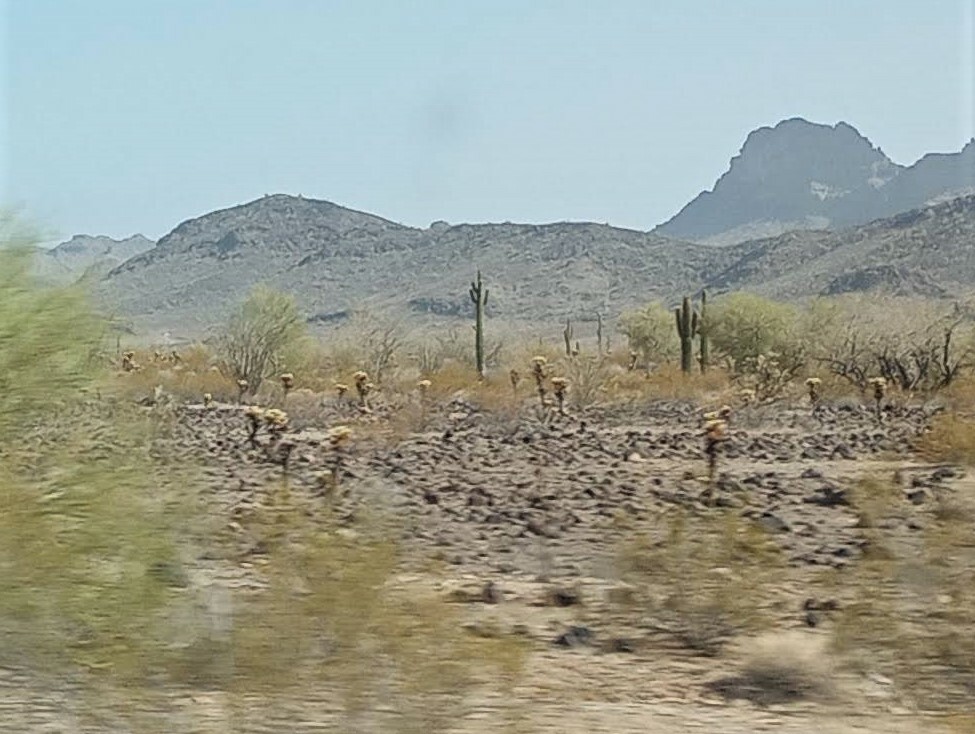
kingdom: Plantae
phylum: Tracheophyta
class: Magnoliopsida
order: Caryophyllales
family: Cactaceae
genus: Carnegiea
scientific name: Carnegiea gigantea
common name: Saguaro
